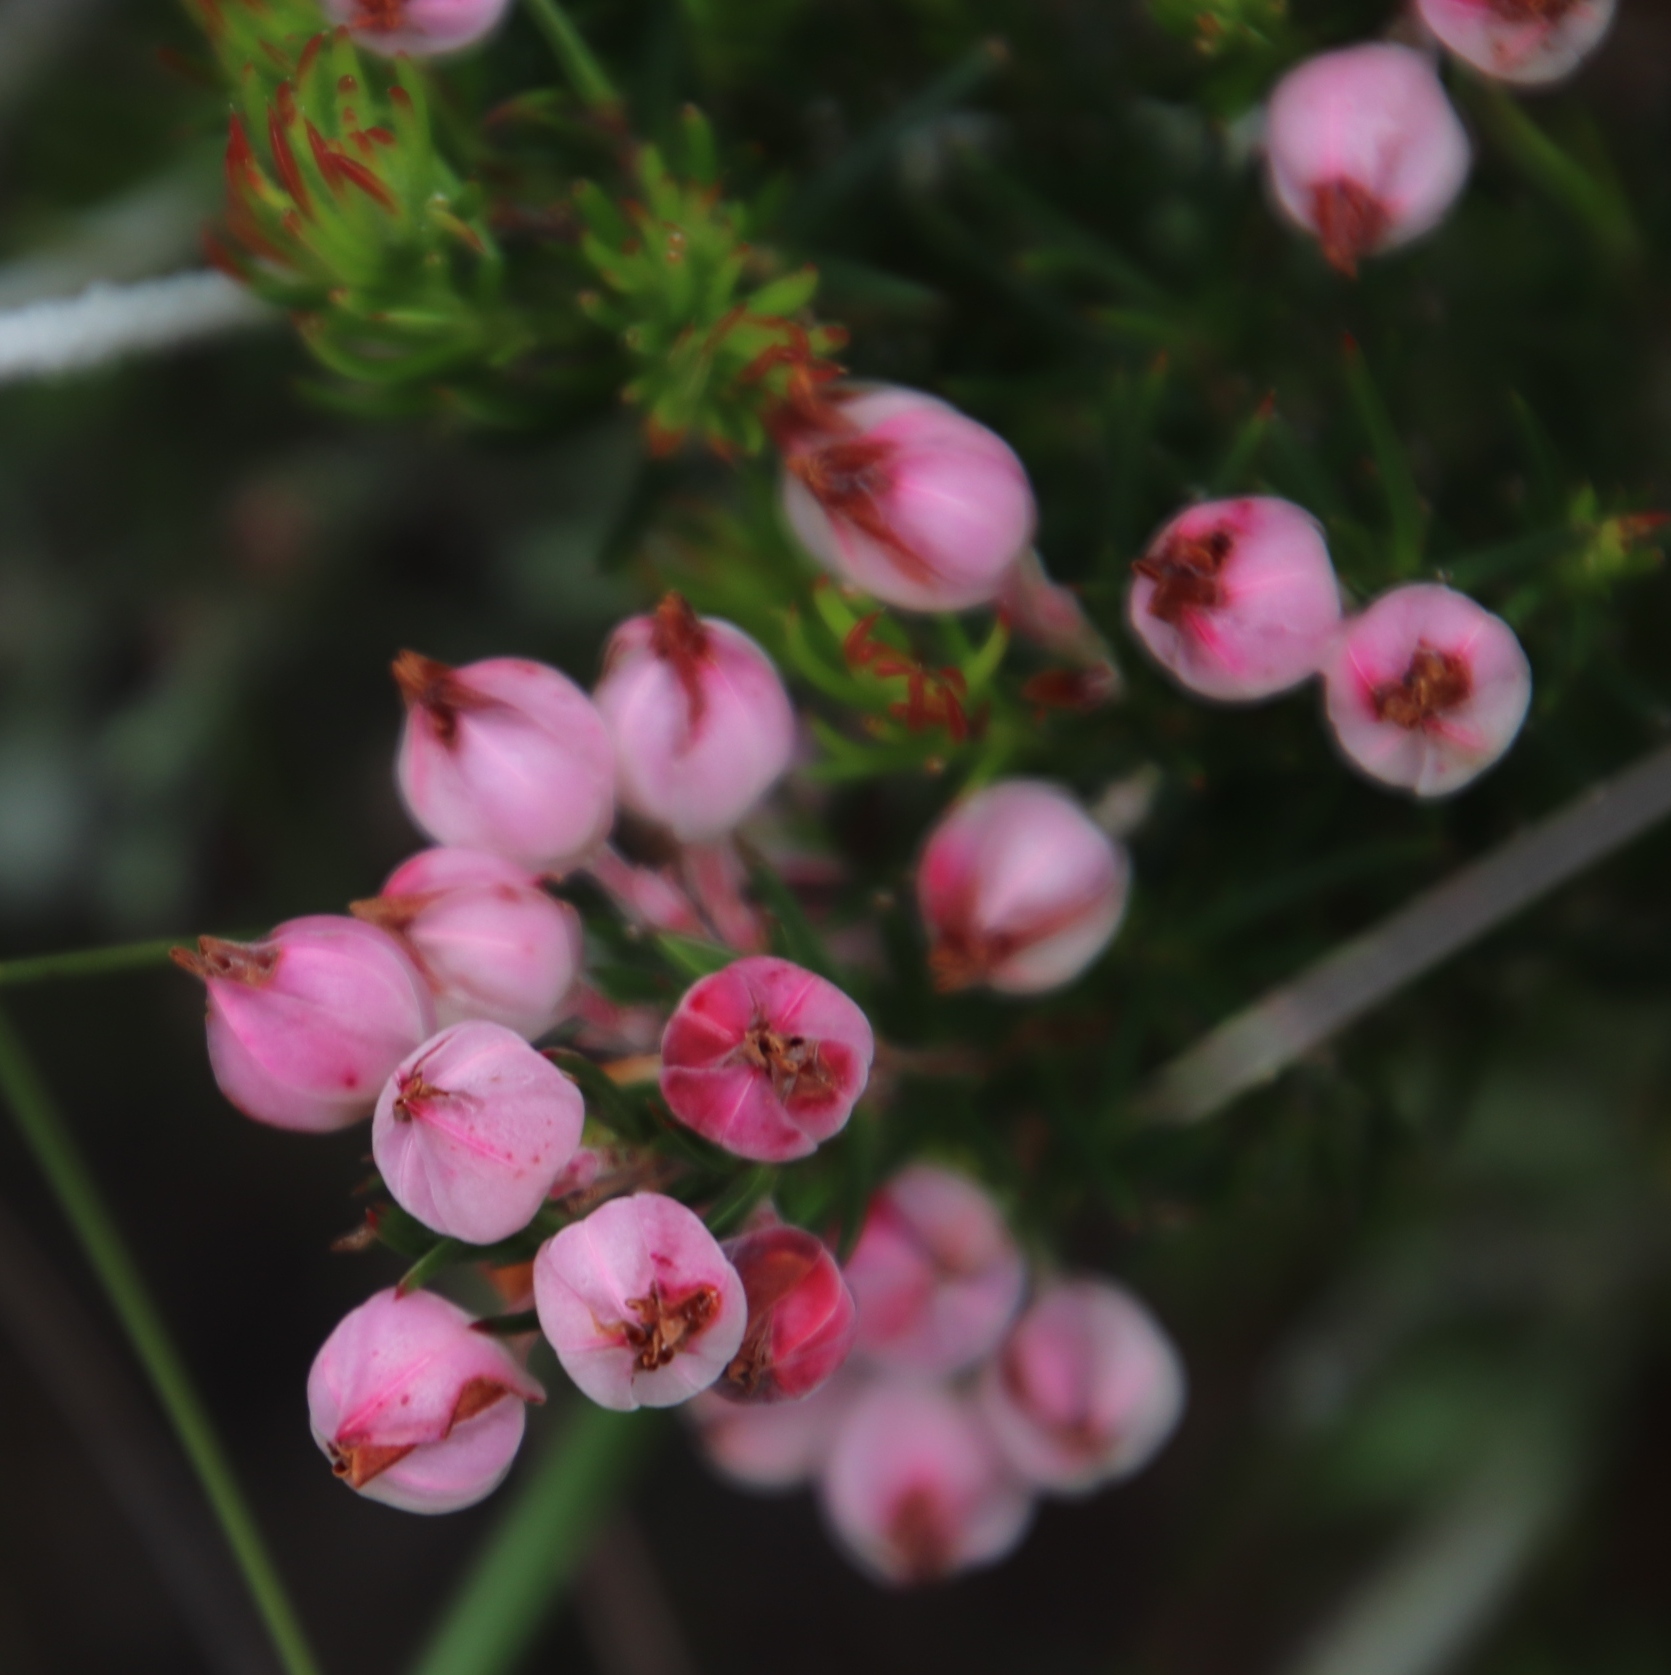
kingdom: Plantae
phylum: Tracheophyta
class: Magnoliopsida
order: Ericales
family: Ericaceae
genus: Erica
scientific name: Erica holosericea
